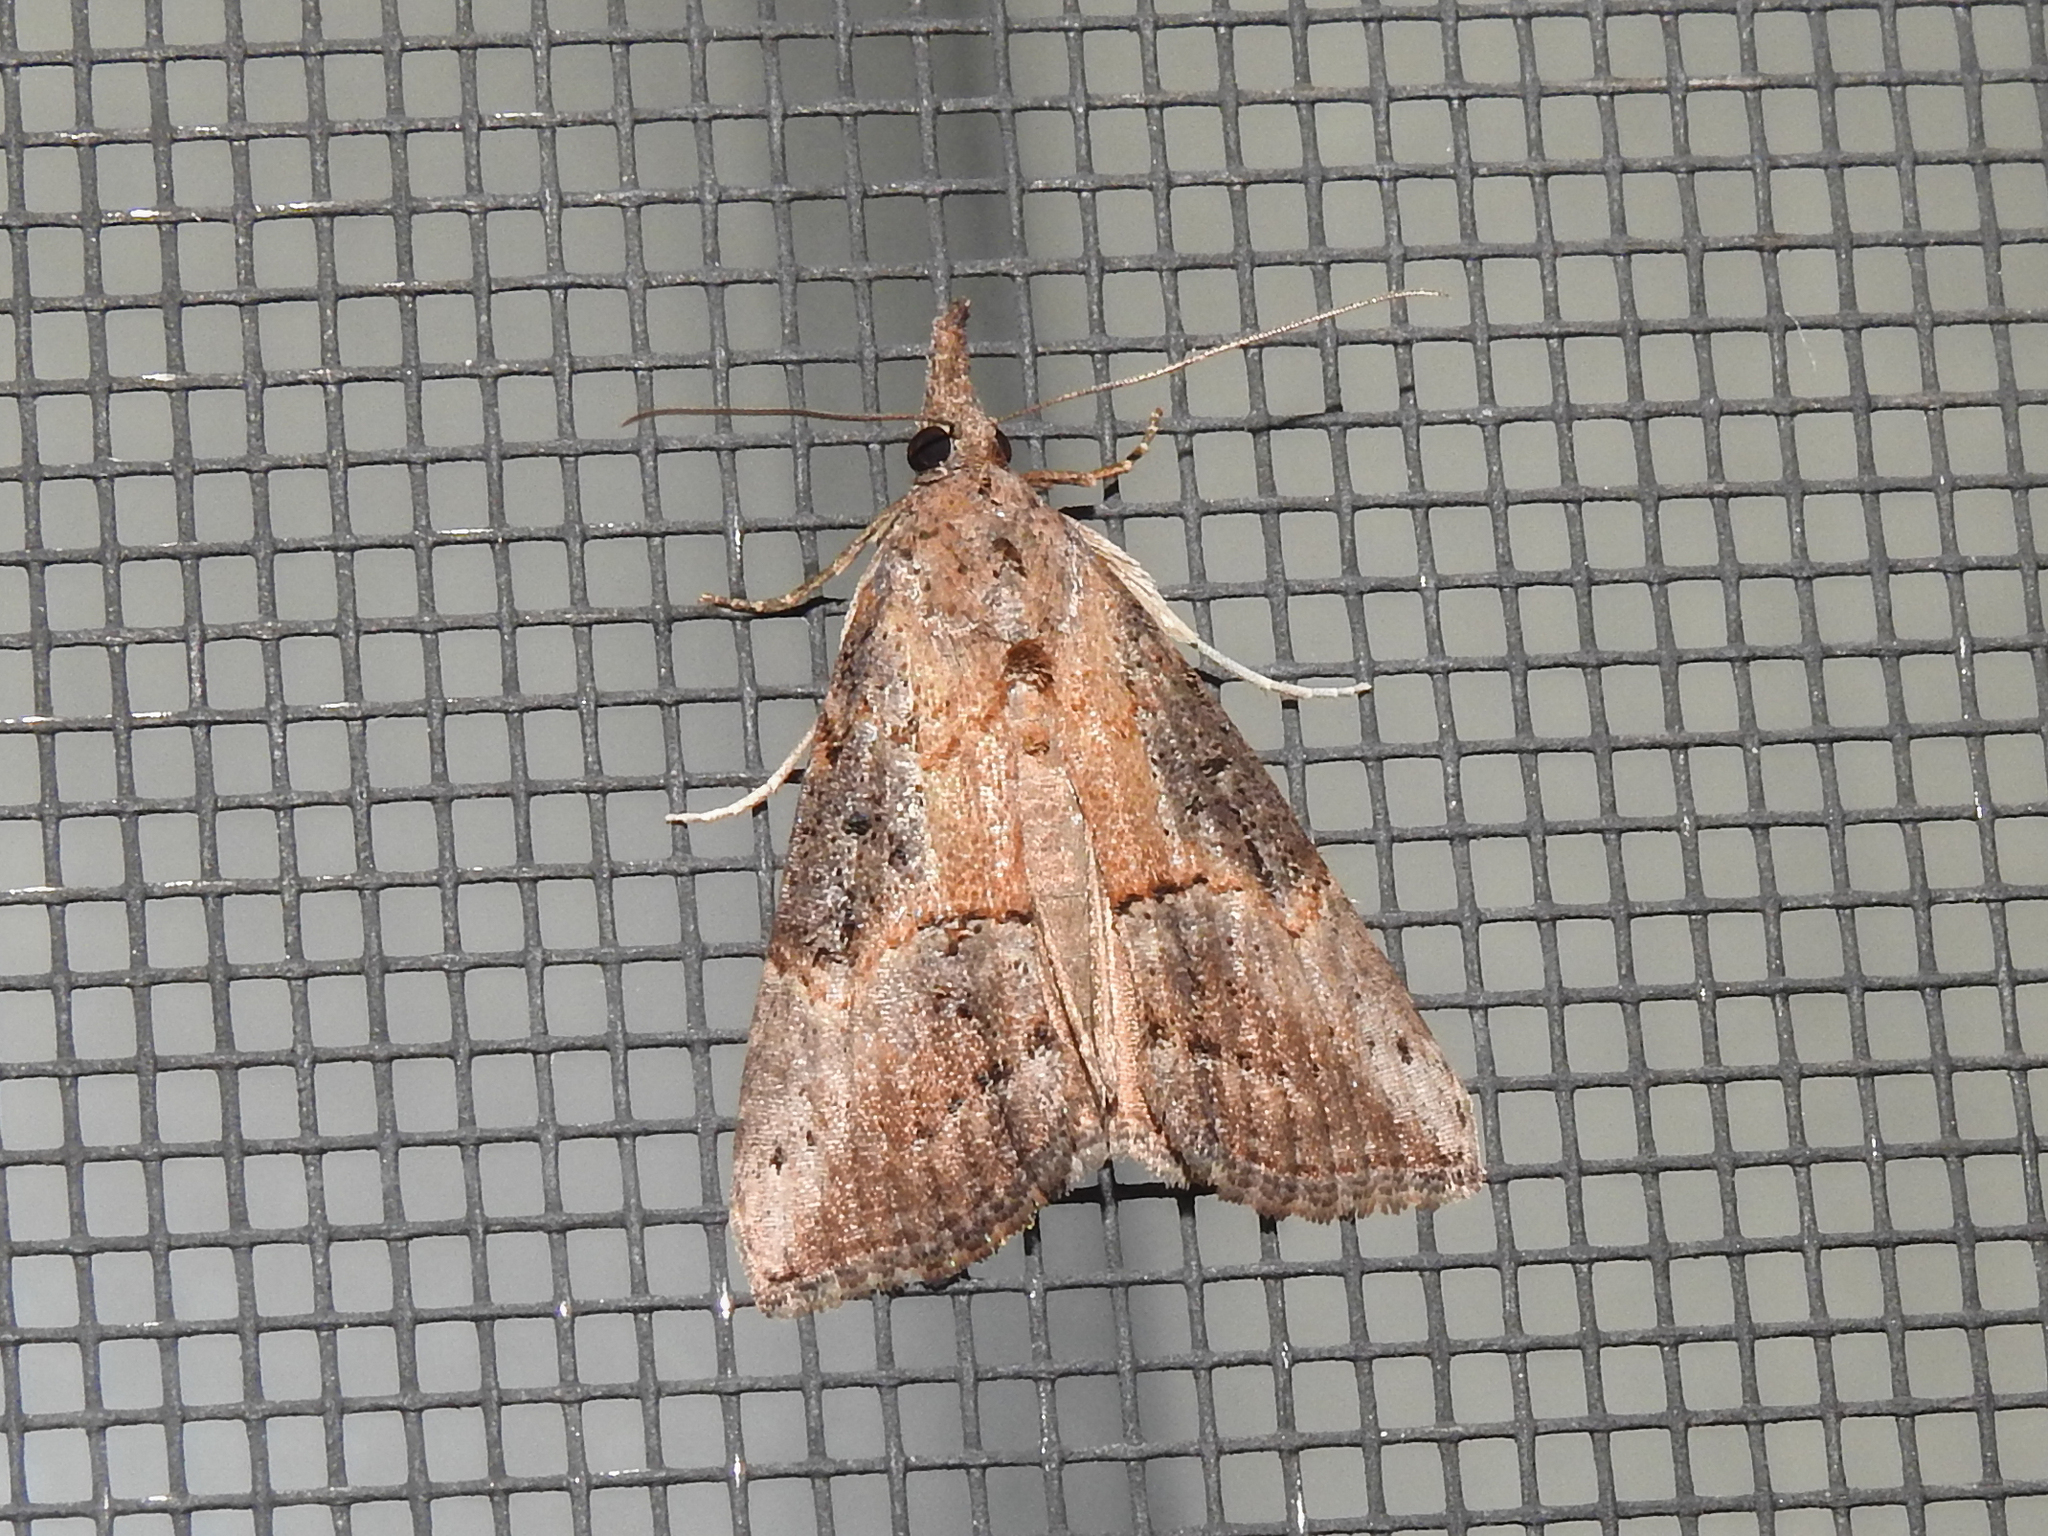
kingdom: Animalia
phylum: Arthropoda
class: Insecta
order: Lepidoptera
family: Erebidae
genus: Hypena
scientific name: Hypena scabra
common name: Green cloverworm
